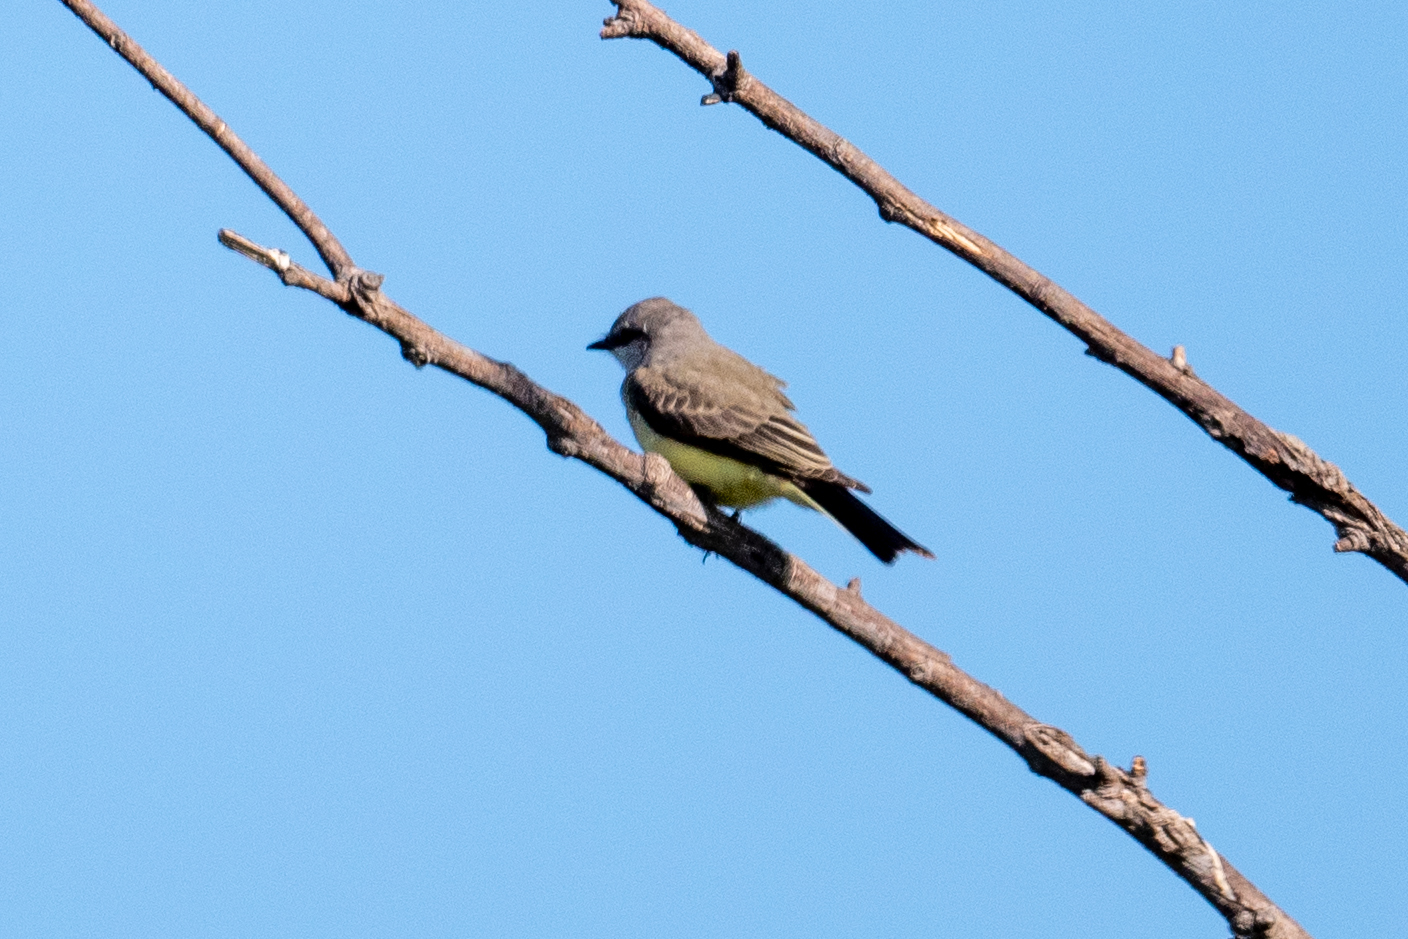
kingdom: Animalia
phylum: Chordata
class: Aves
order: Passeriformes
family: Tyrannidae
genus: Tyrannus
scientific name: Tyrannus verticalis
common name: Western kingbird
